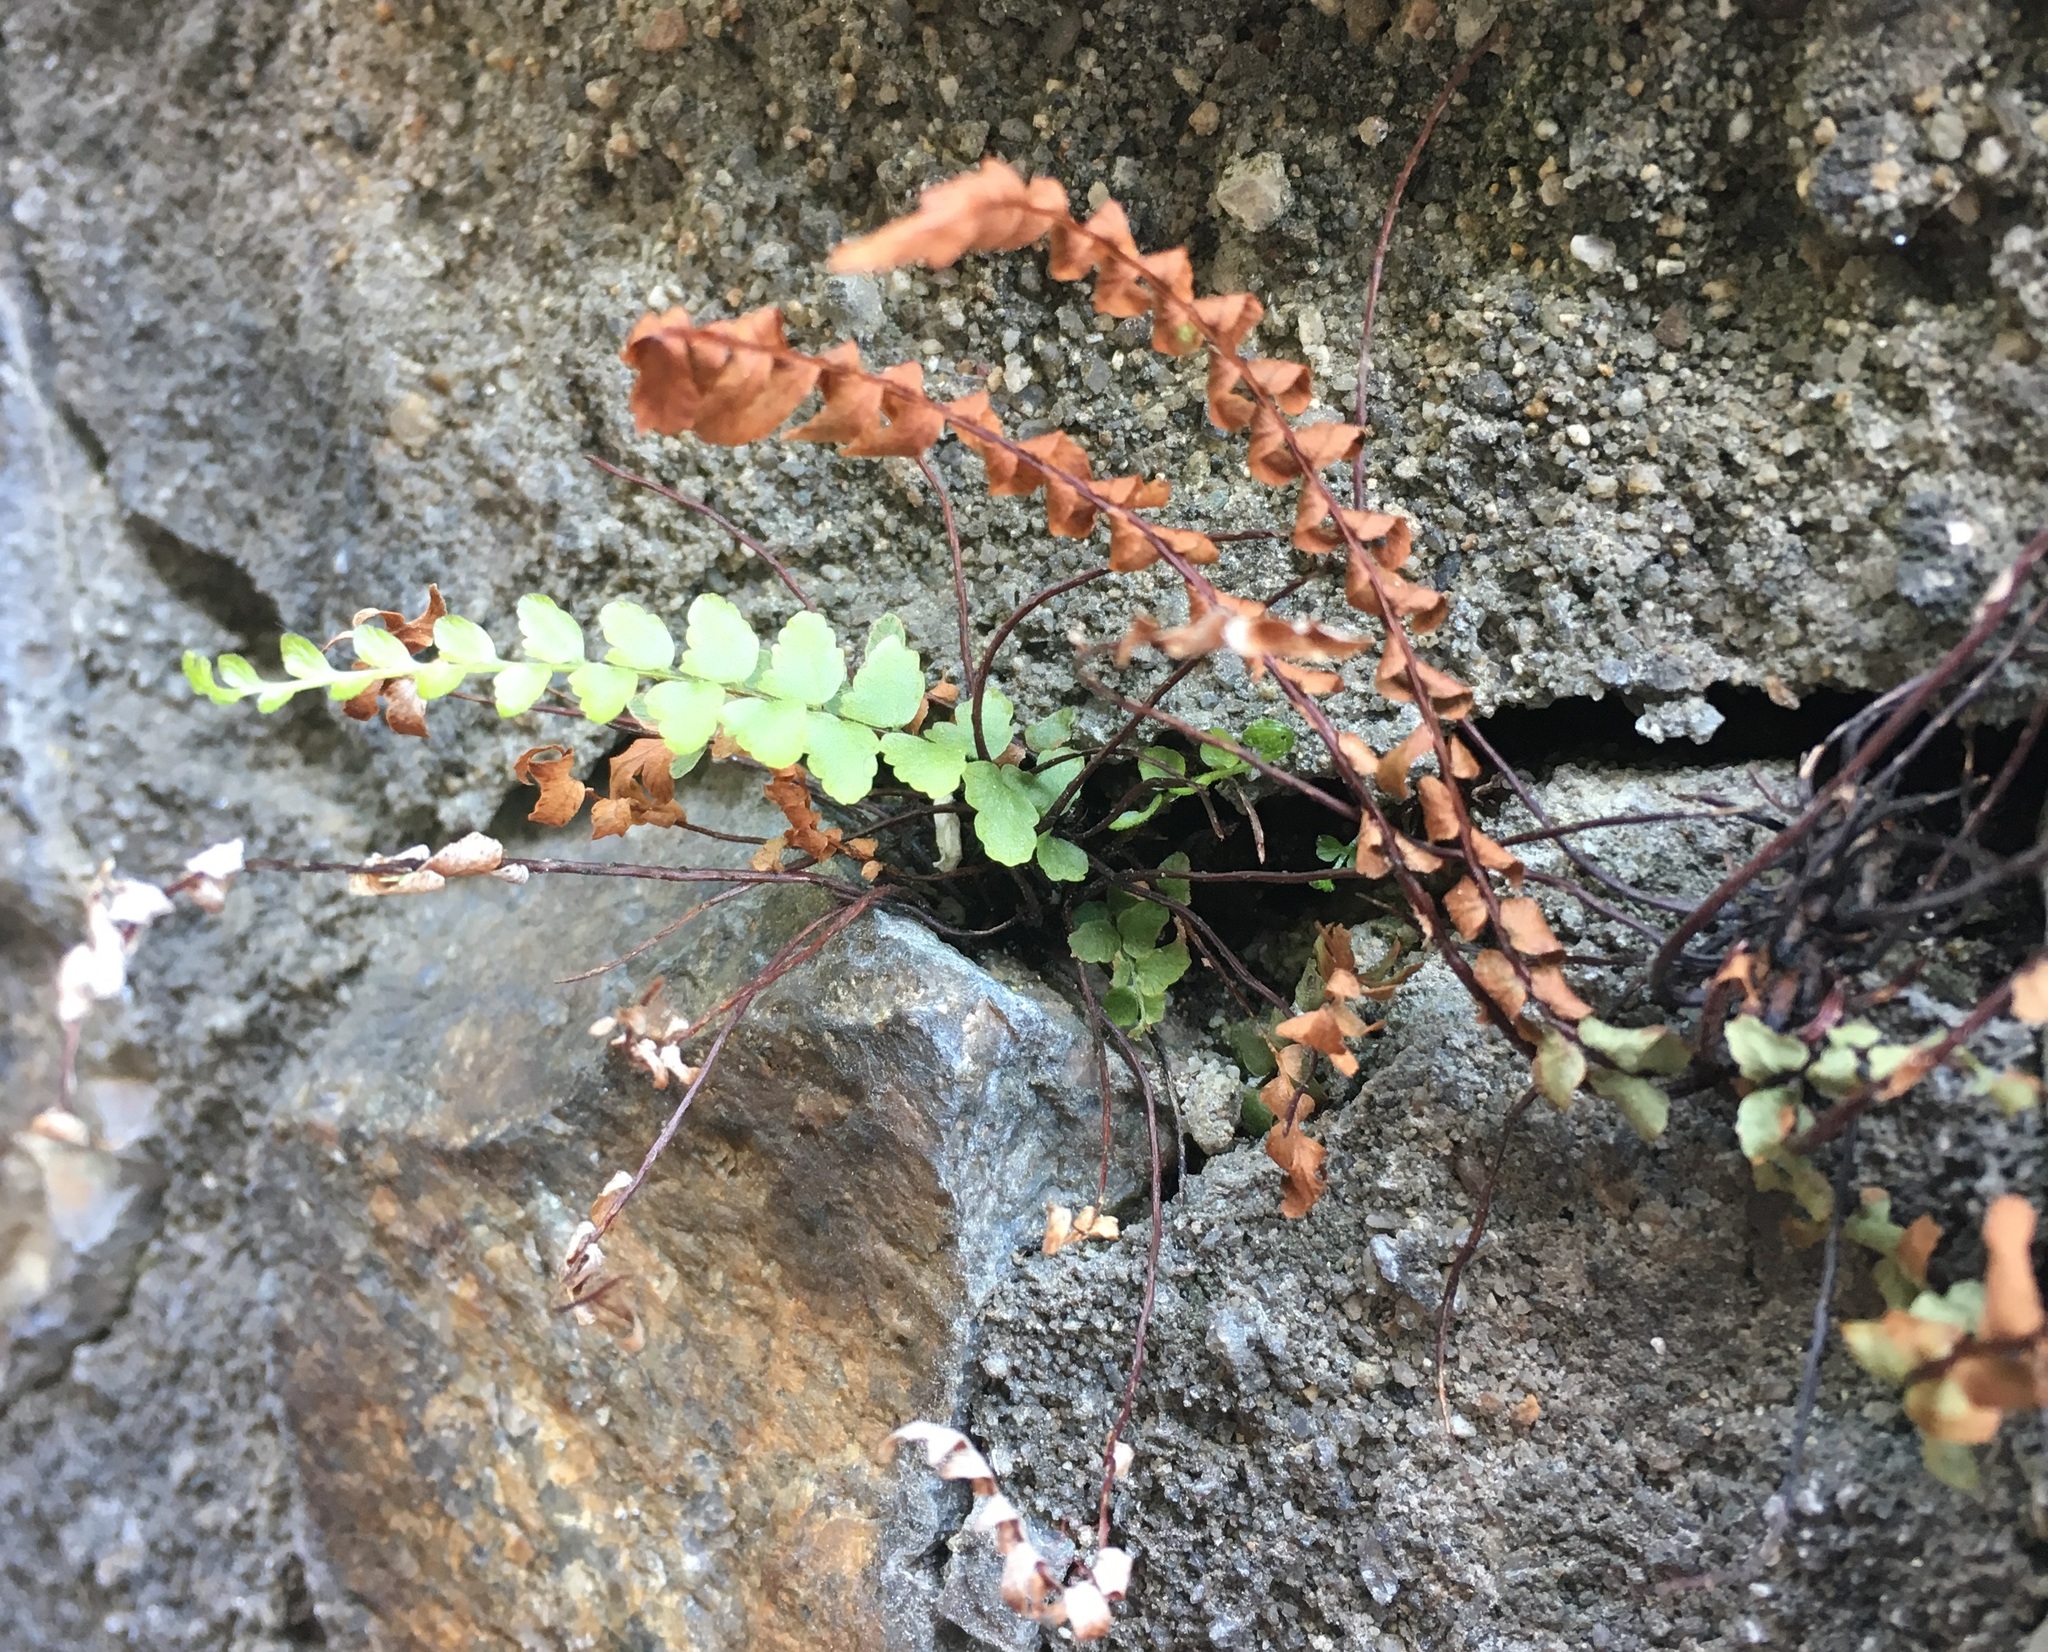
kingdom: Plantae
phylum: Tracheophyta
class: Polypodiopsida
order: Polypodiales
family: Aspleniaceae
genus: Asplenium
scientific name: Asplenium platyneuron
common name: Ebony spleenwort
